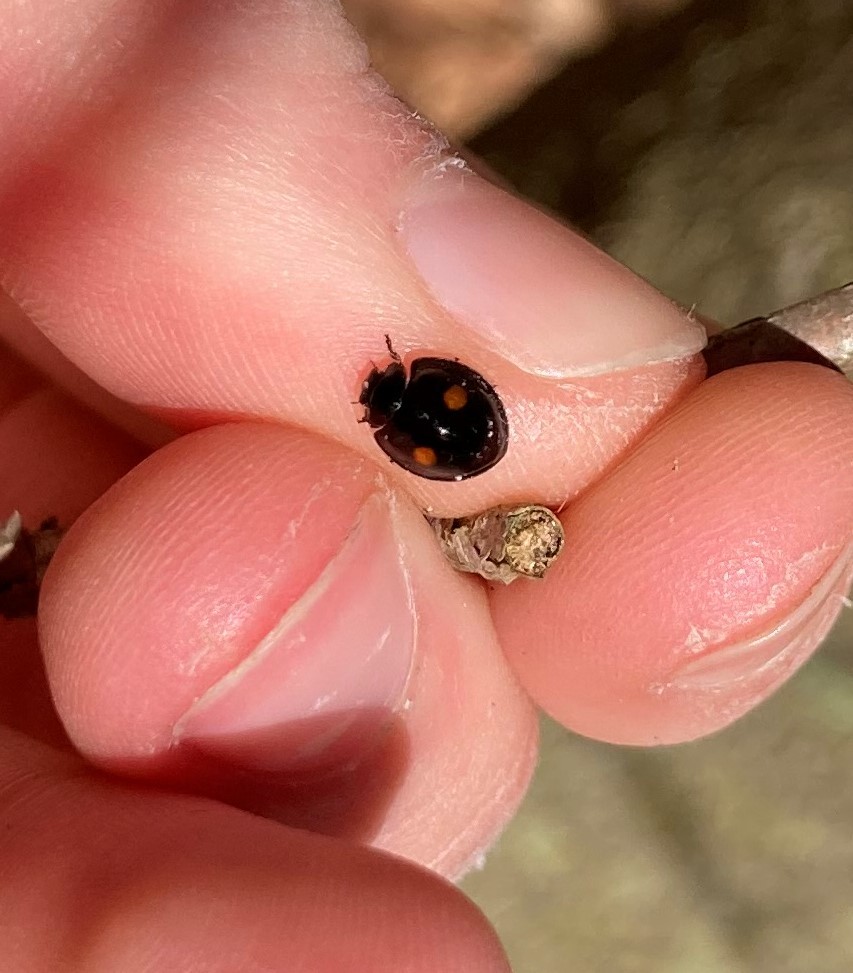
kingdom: Animalia
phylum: Arthropoda
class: Insecta
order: Coleoptera
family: Coccinellidae
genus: Chilocorus
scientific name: Chilocorus stigma
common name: Twicestabbed lady beetle
